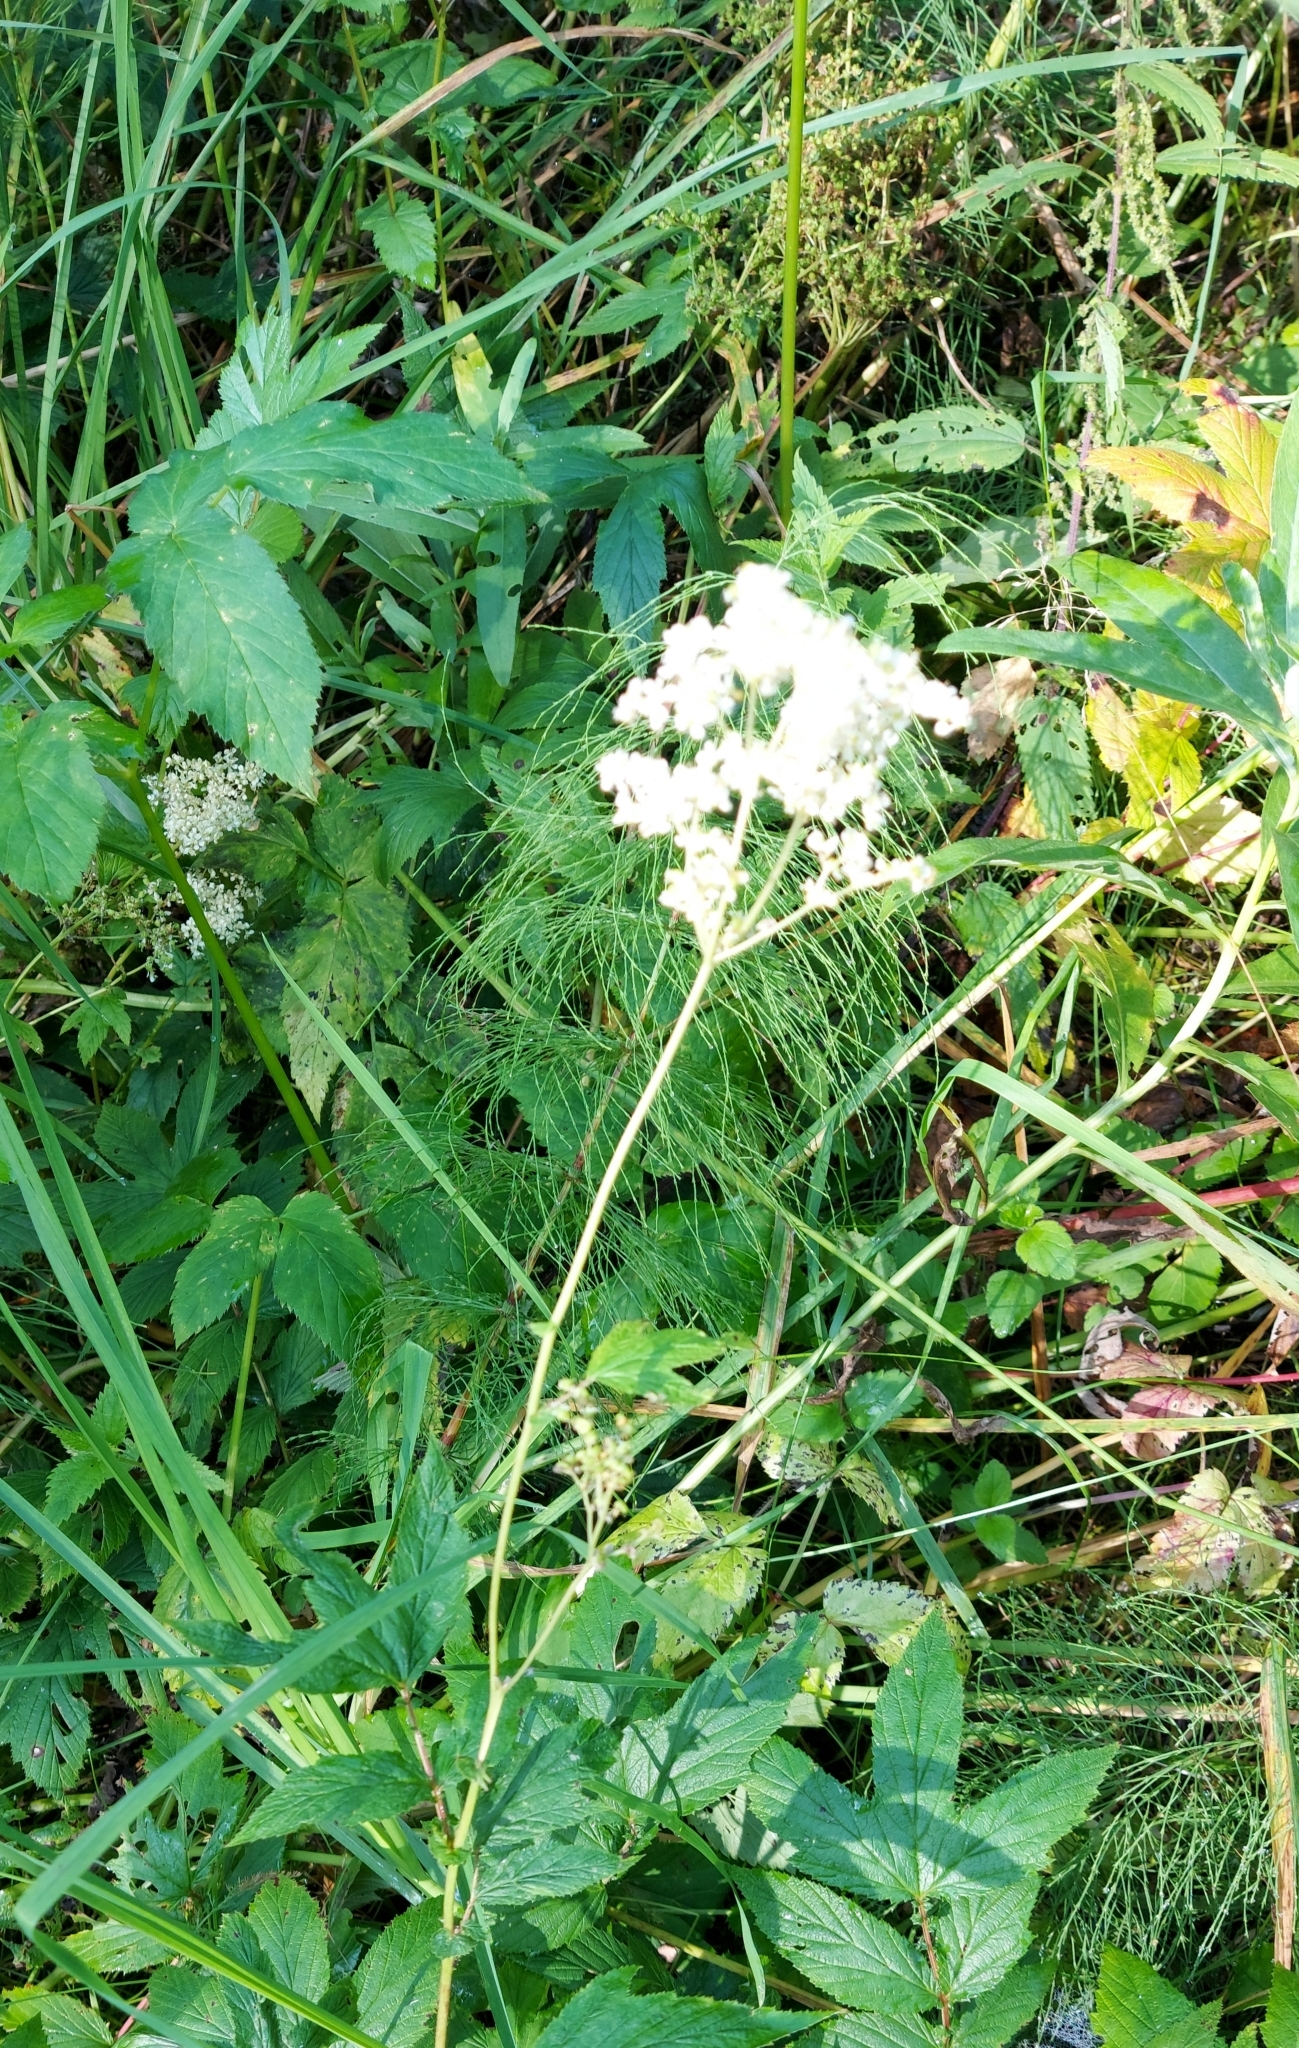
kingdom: Plantae
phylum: Tracheophyta
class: Magnoliopsida
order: Rosales
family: Rosaceae
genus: Filipendula
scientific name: Filipendula ulmaria
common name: Meadowsweet
